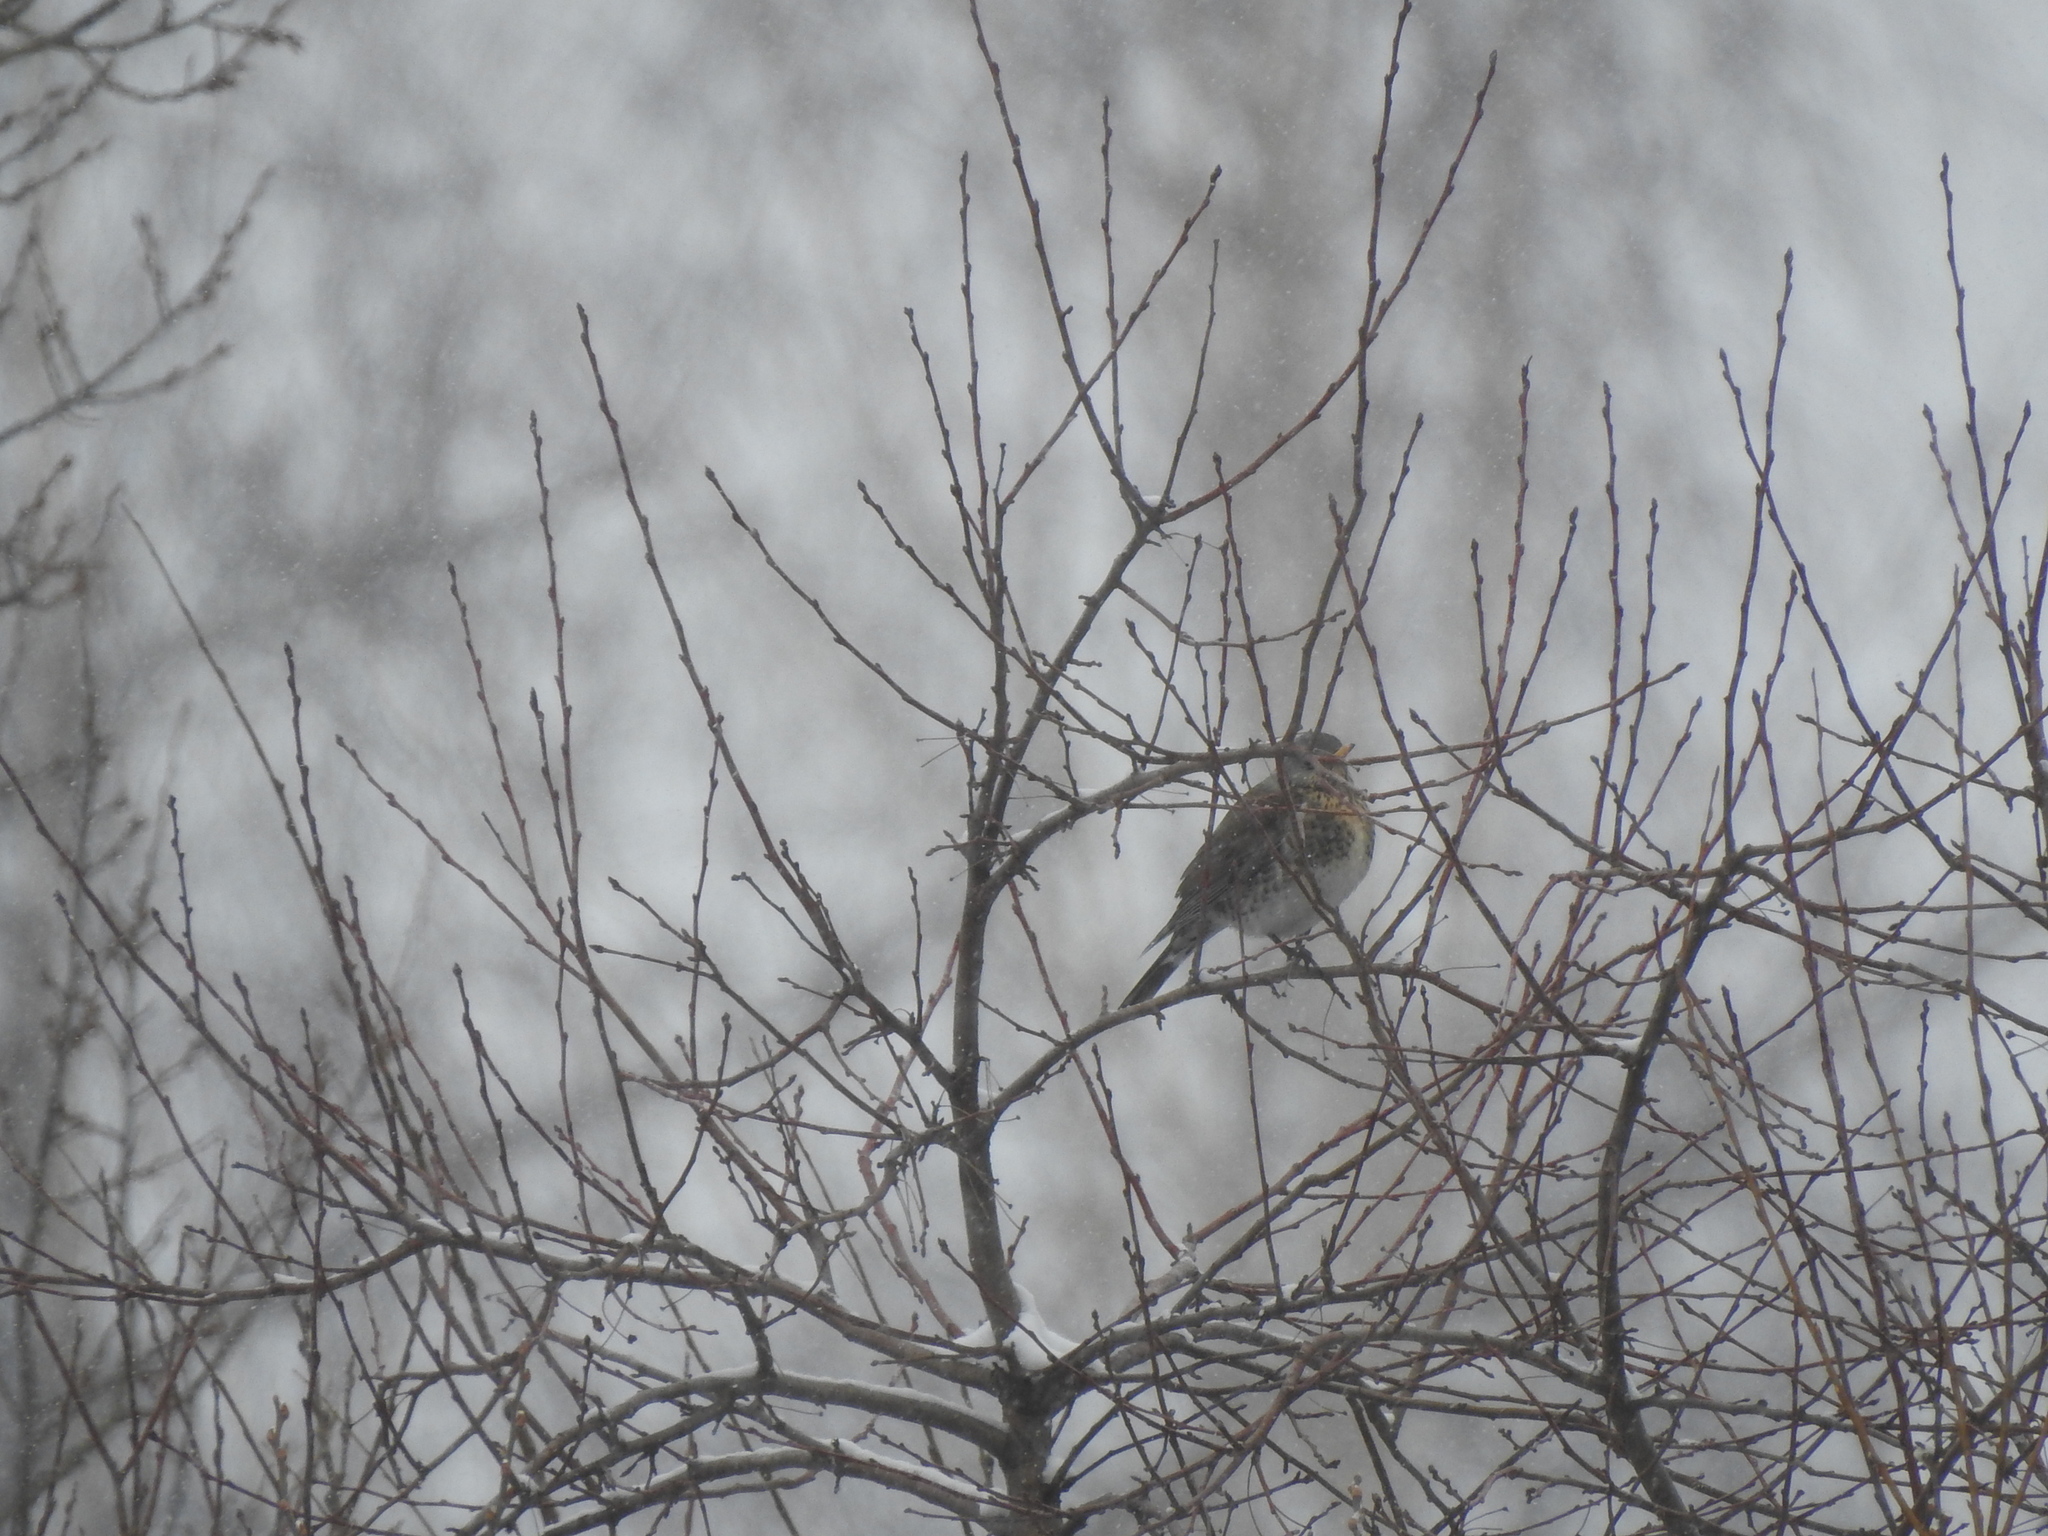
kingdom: Animalia
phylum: Chordata
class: Aves
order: Passeriformes
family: Turdidae
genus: Turdus
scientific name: Turdus pilaris
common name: Fieldfare
